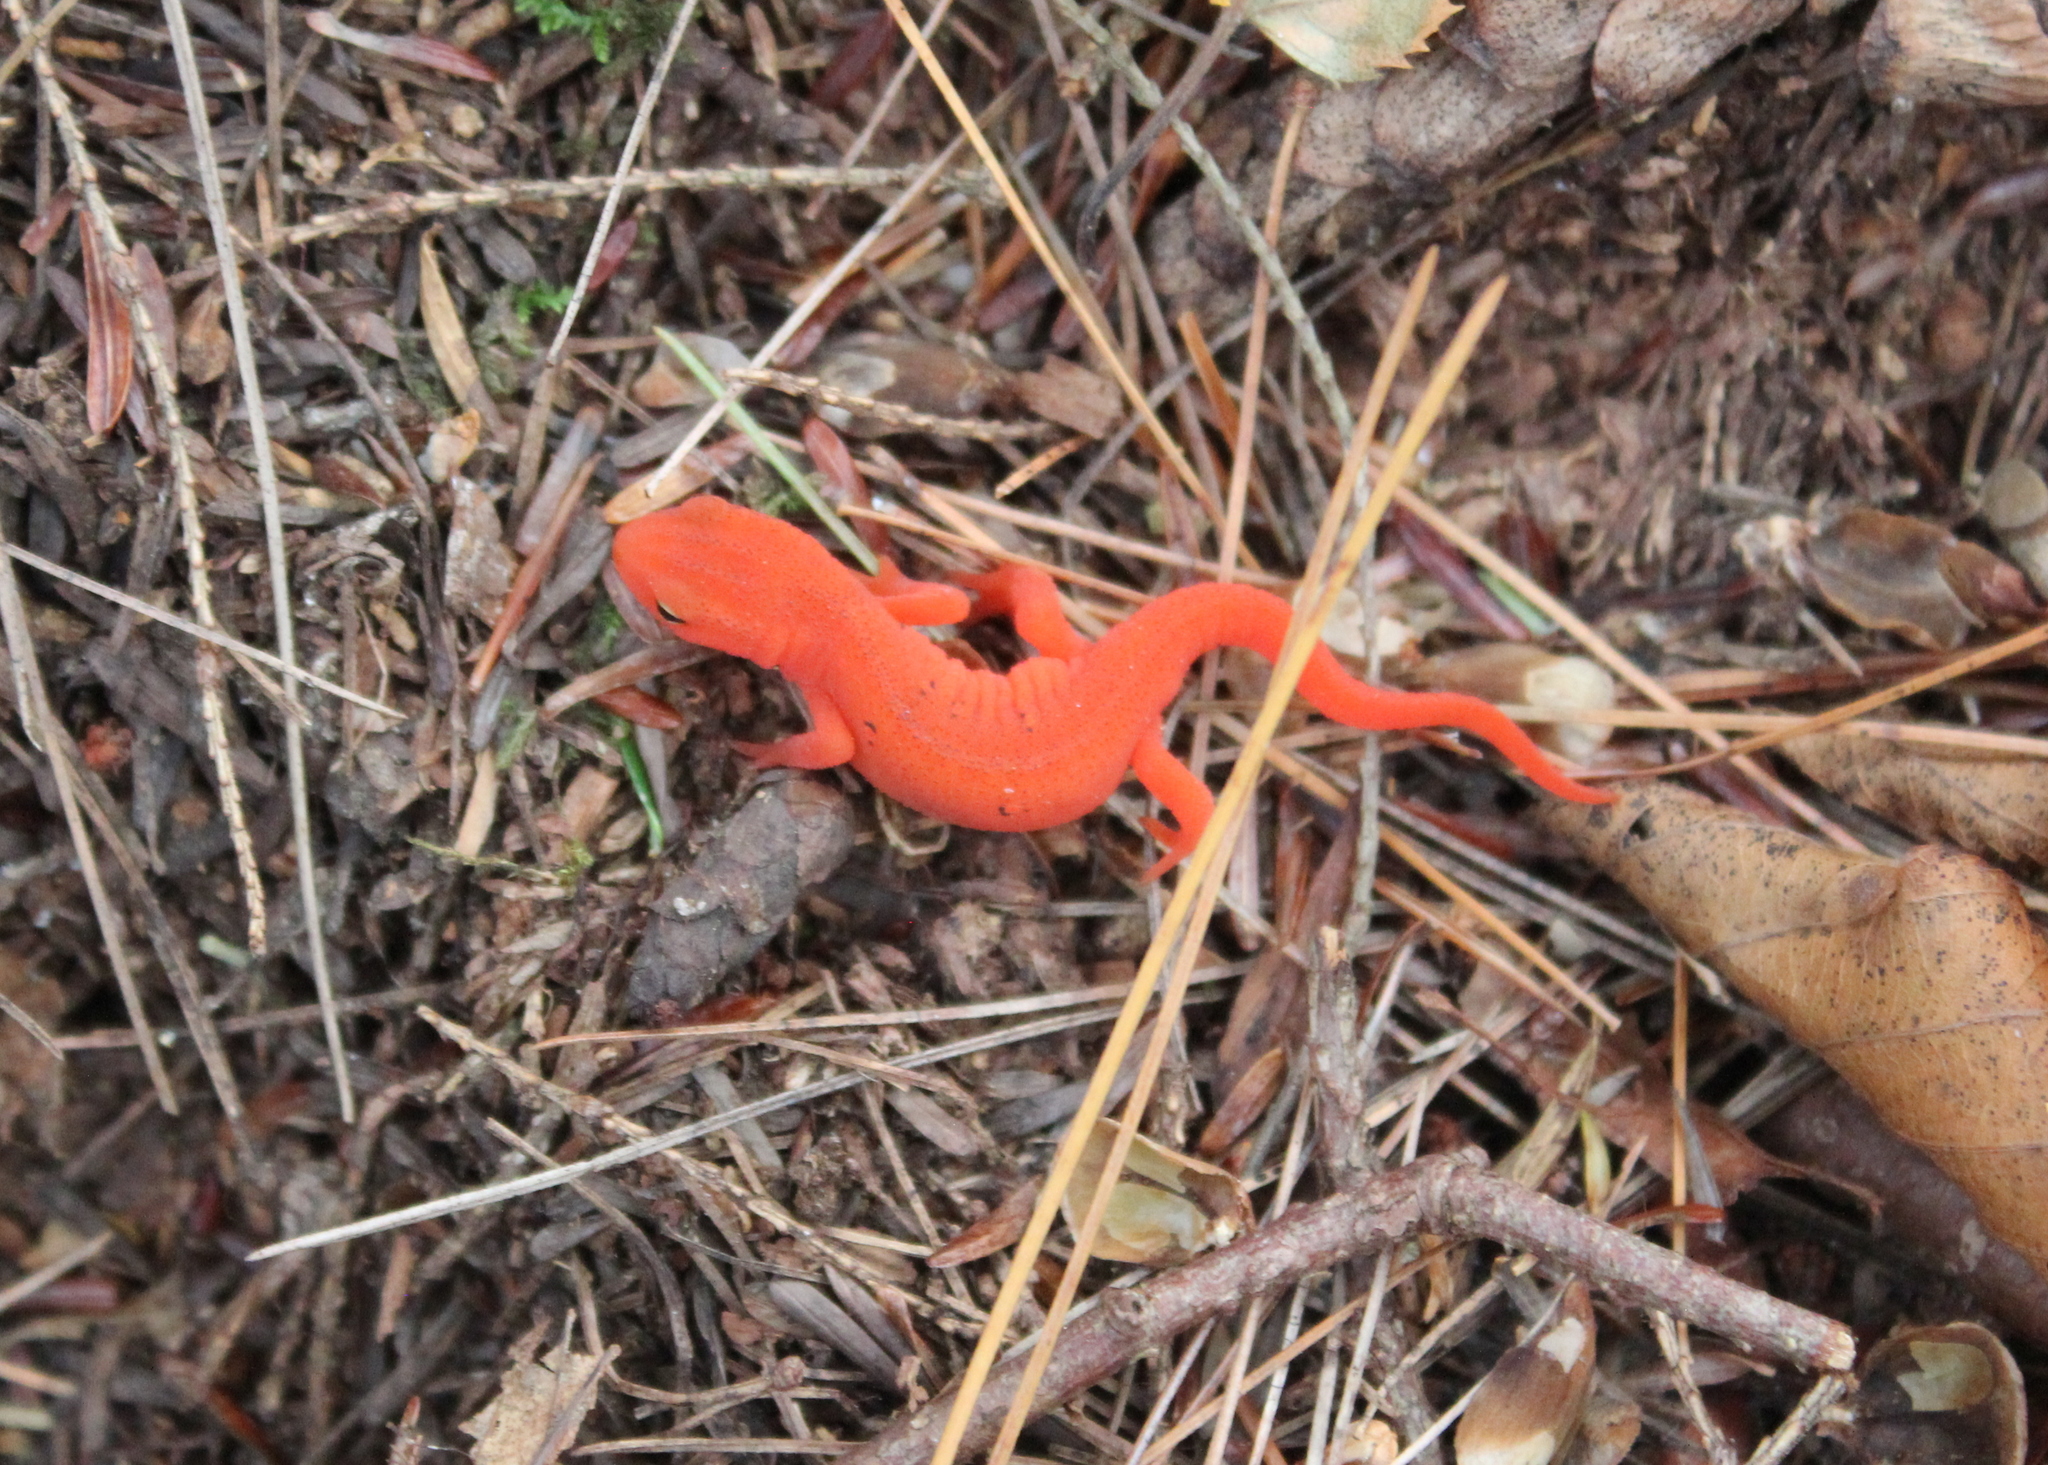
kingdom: Animalia
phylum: Chordata
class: Amphibia
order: Caudata
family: Salamandridae
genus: Notophthalmus
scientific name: Notophthalmus viridescens
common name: Eastern newt
